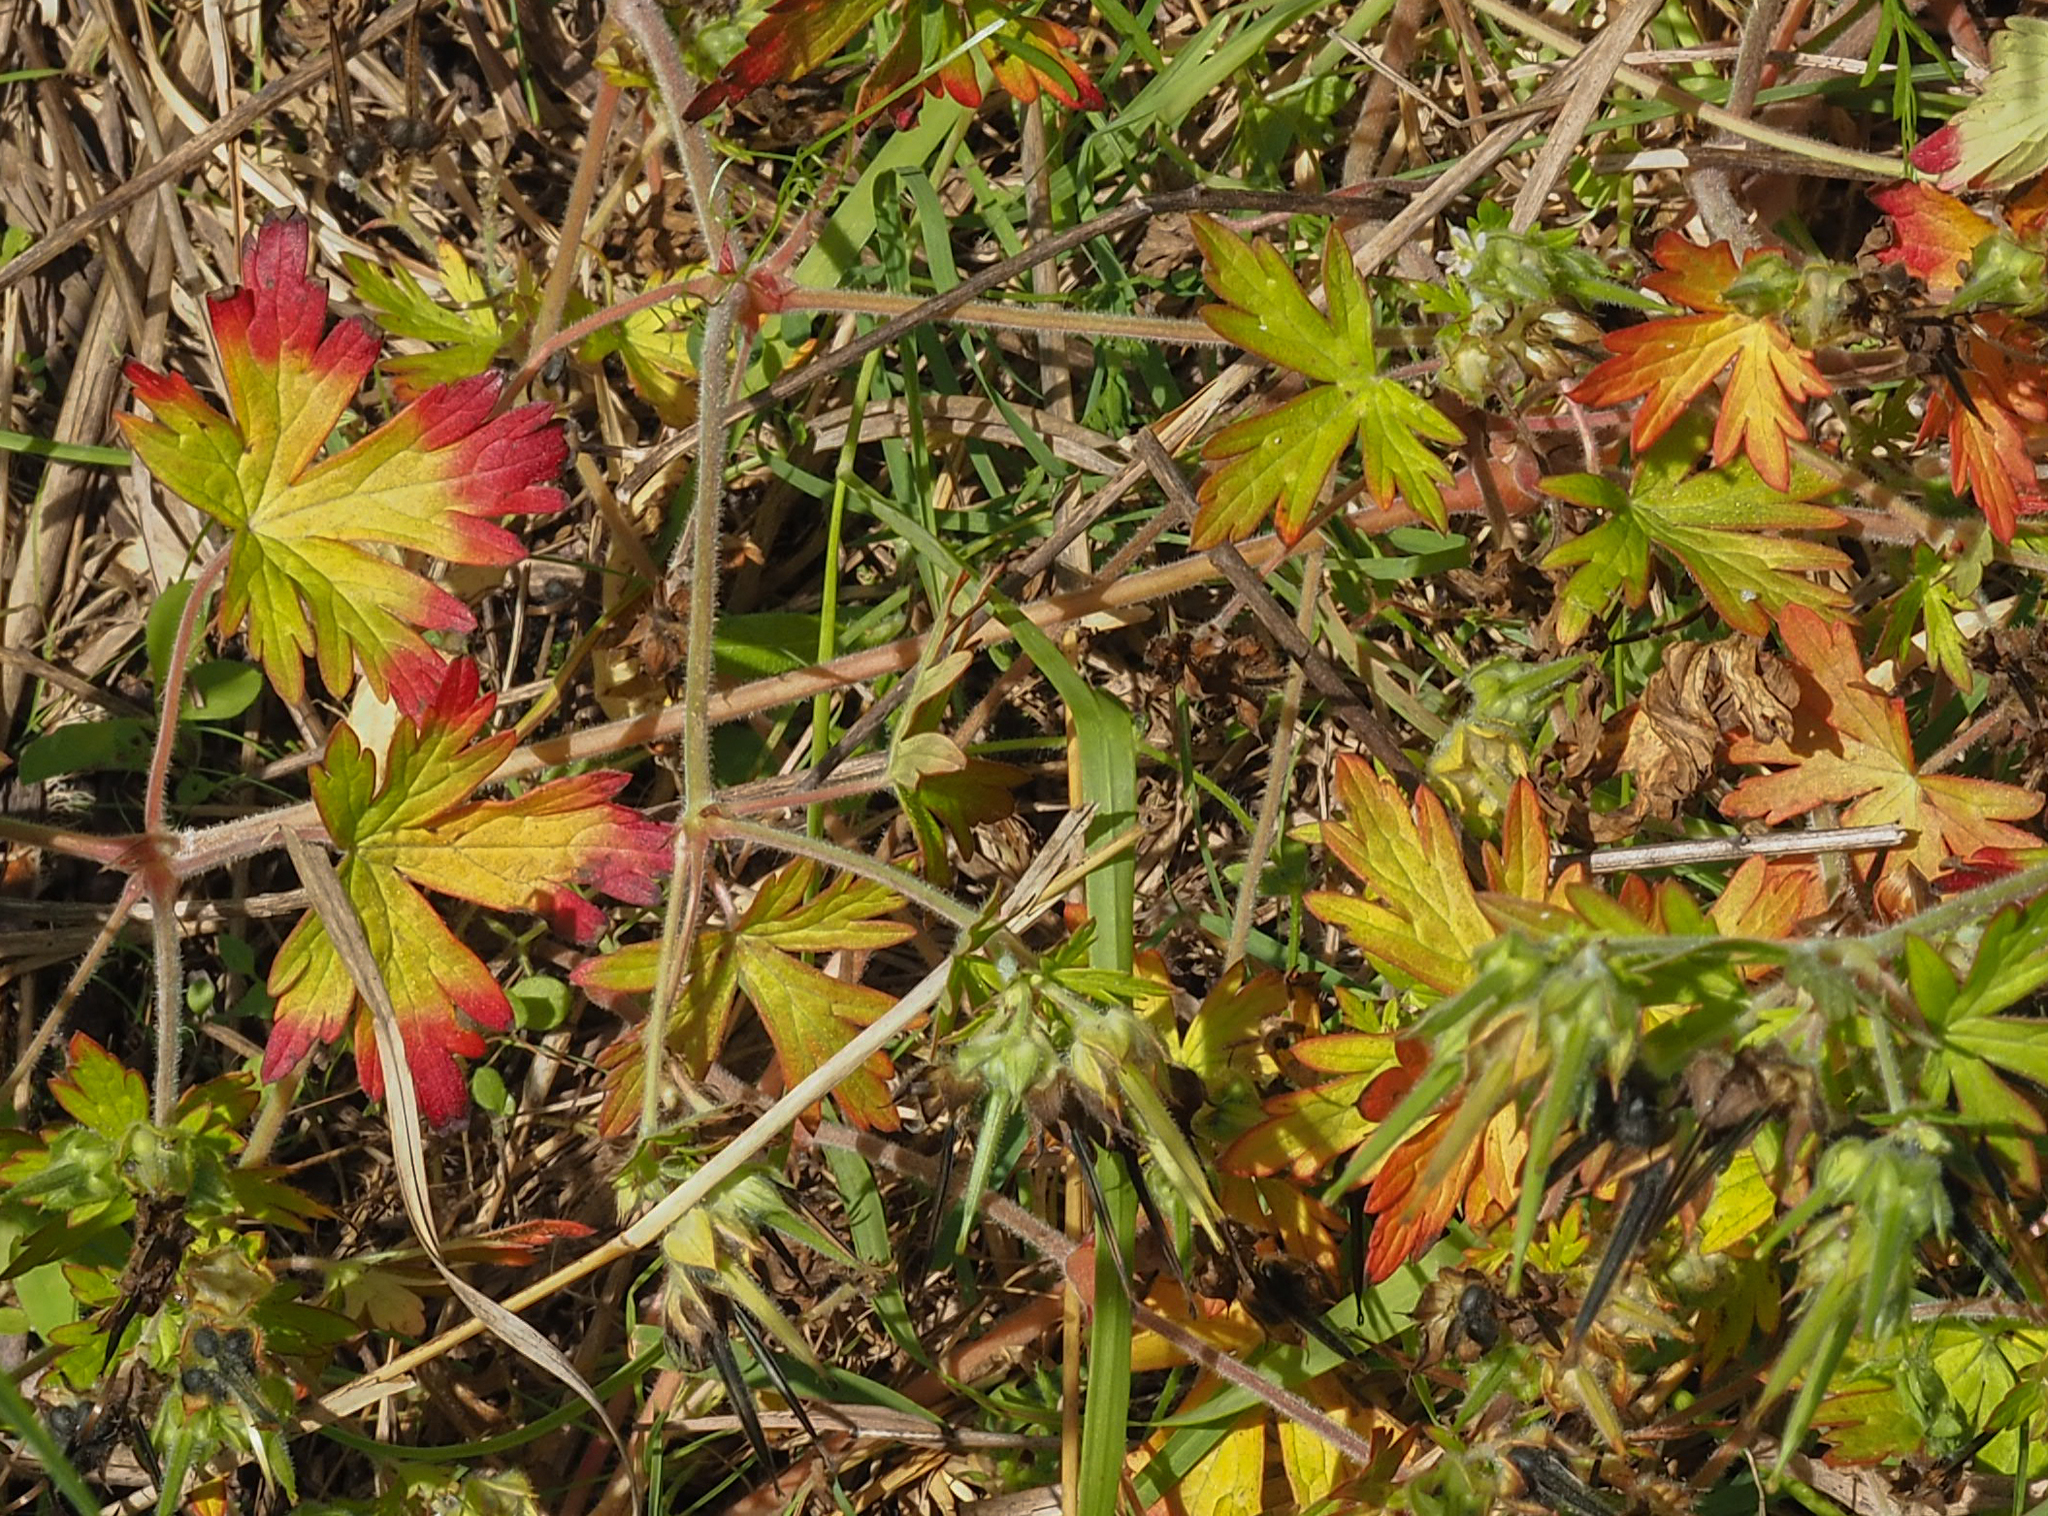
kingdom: Plantae
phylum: Tracheophyta
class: Magnoliopsida
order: Geraniales
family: Geraniaceae
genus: Geranium
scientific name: Geranium carolinianum
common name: Carolina crane's-bill
